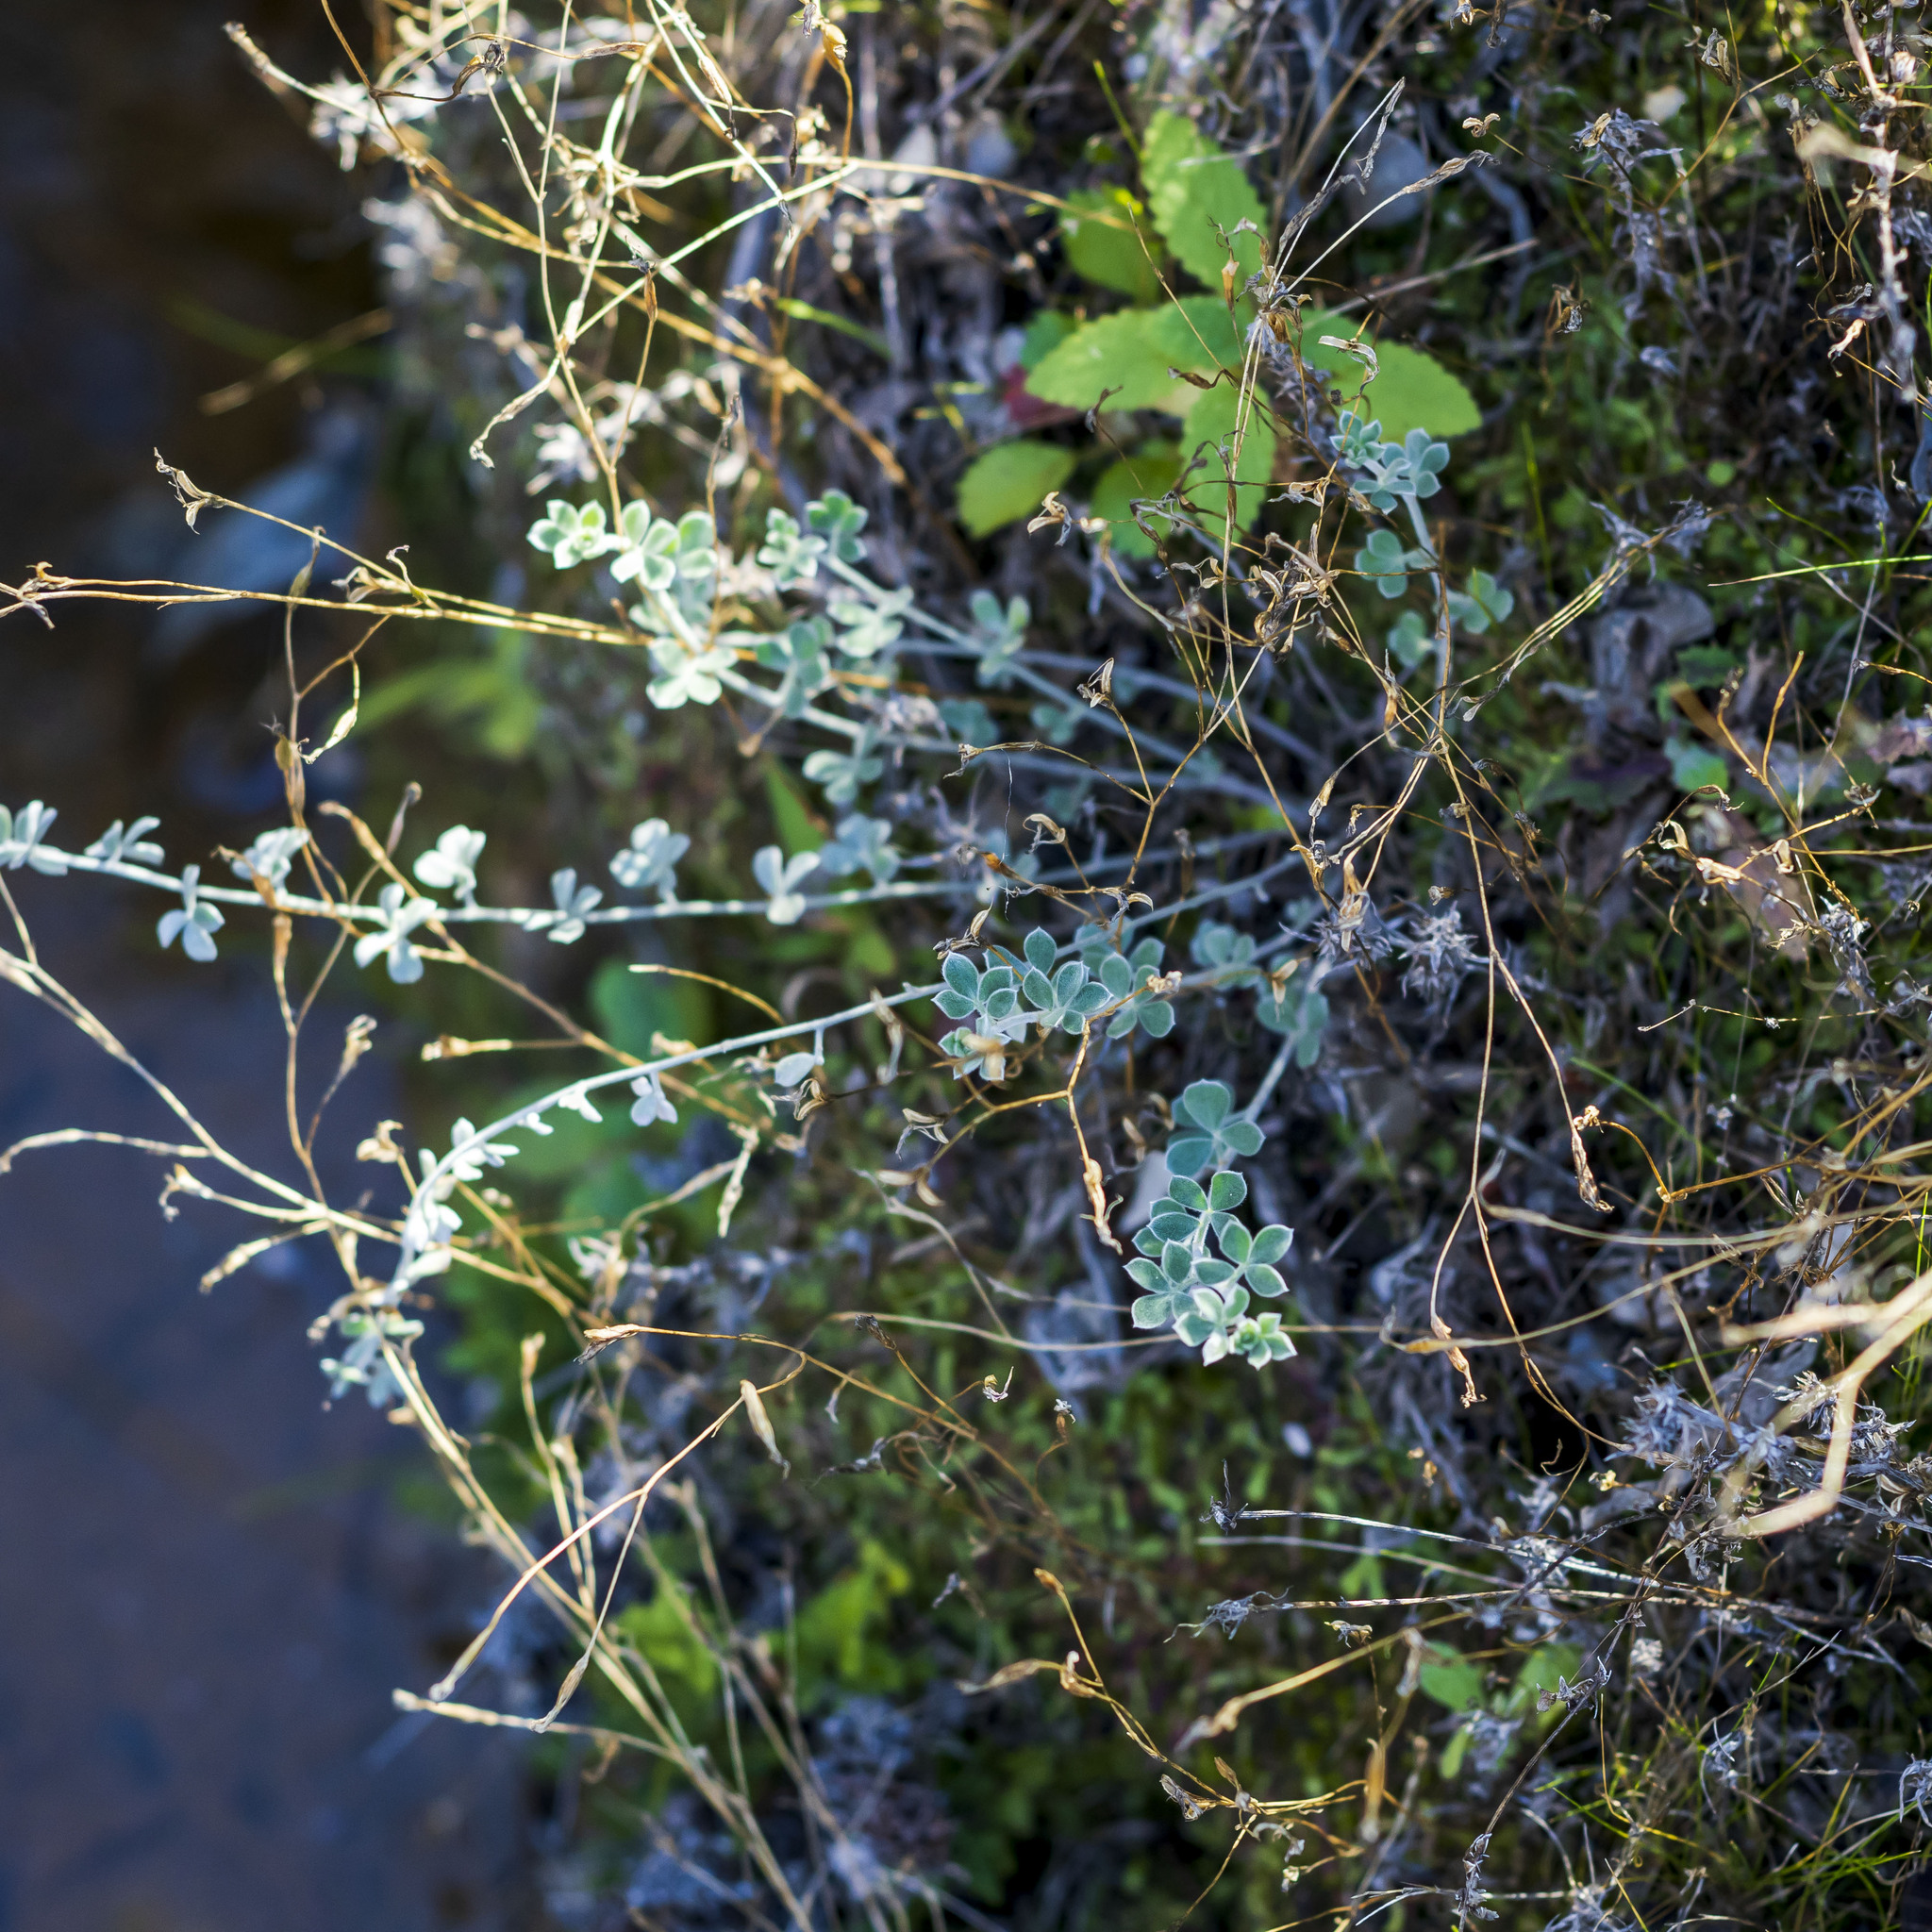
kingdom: Plantae
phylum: Tracheophyta
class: Magnoliopsida
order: Fabales
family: Fabaceae
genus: Acmispon
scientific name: Acmispon argophyllus
